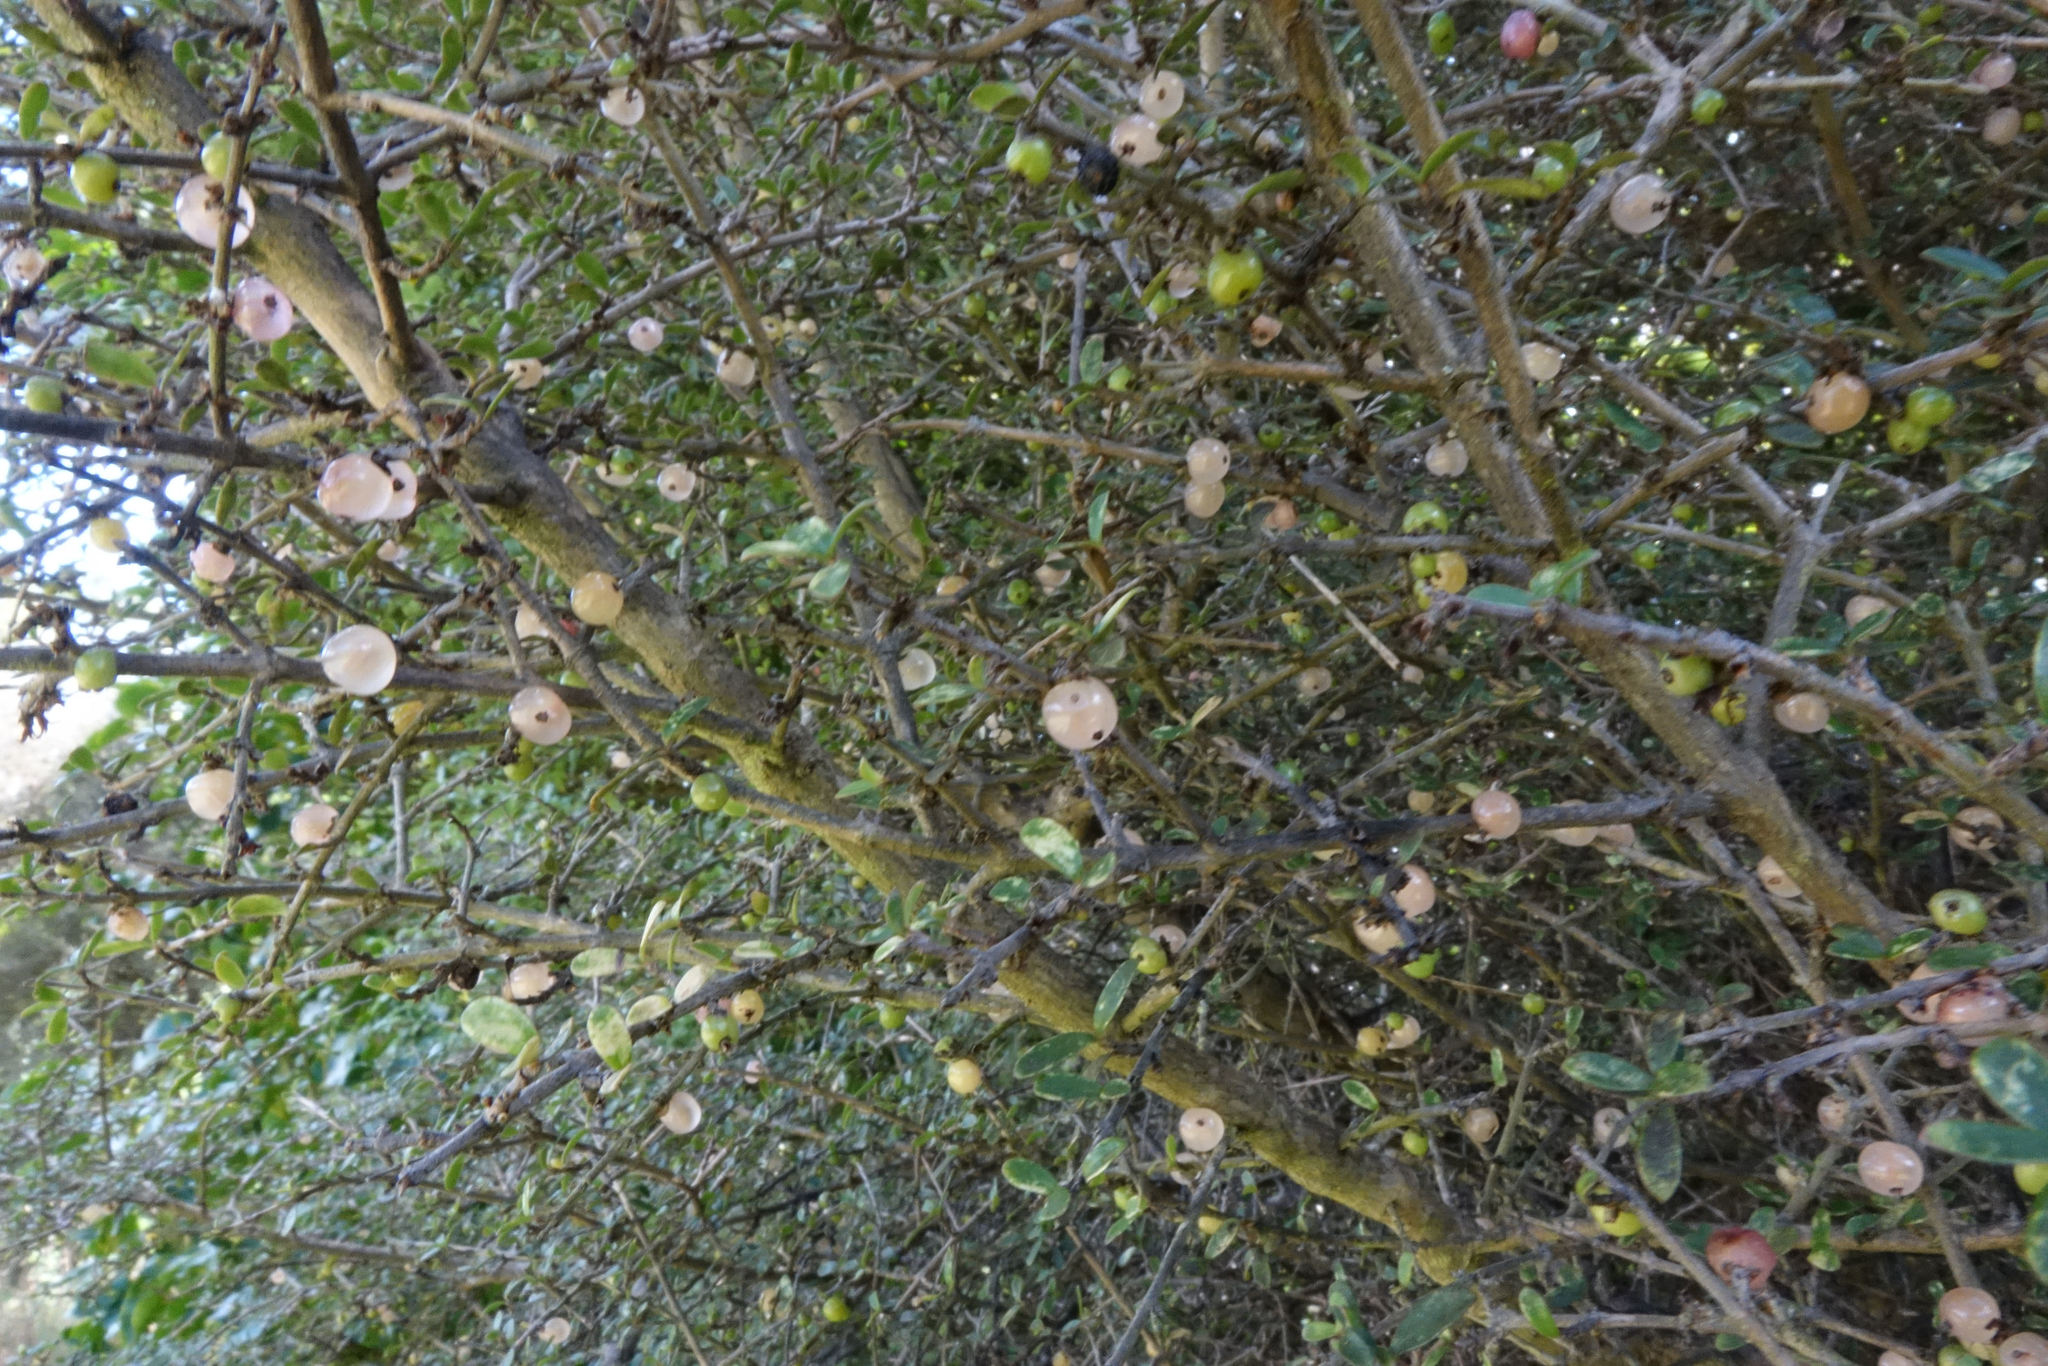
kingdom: Plantae
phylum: Tracheophyta
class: Magnoliopsida
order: Gentianales
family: Rubiaceae
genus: Coprosma
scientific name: Coprosma dumosa
